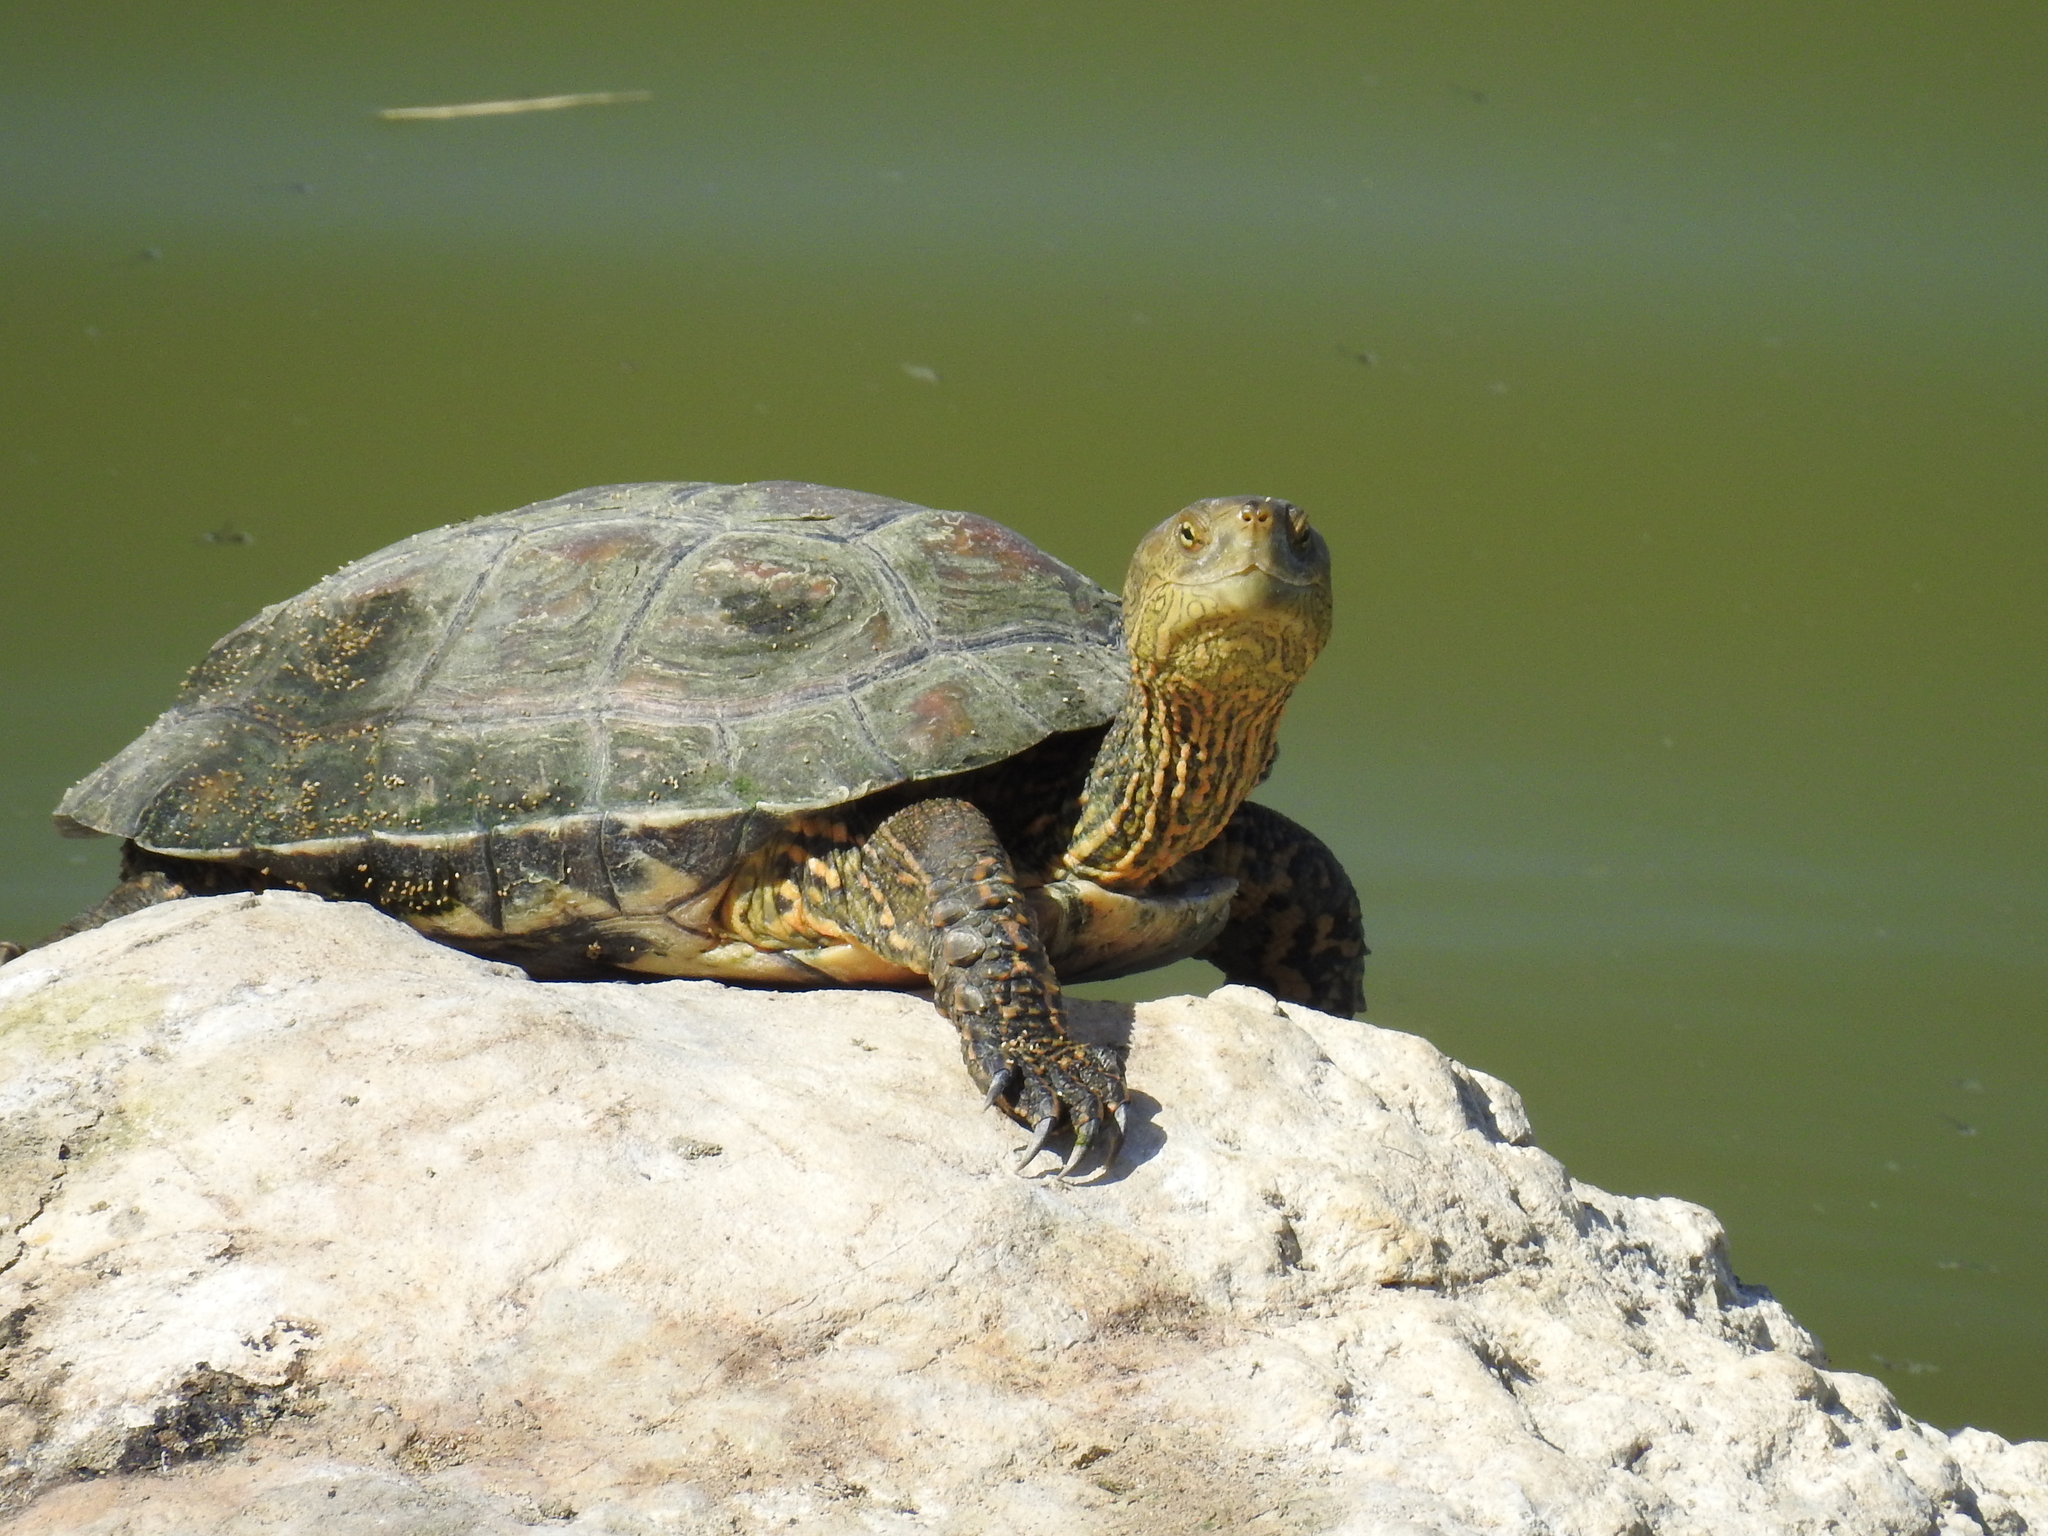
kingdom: Animalia
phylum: Chordata
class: Testudines
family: Geoemydidae
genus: Mauremys
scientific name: Mauremys leprosa
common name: Mediterranean pond turtle
